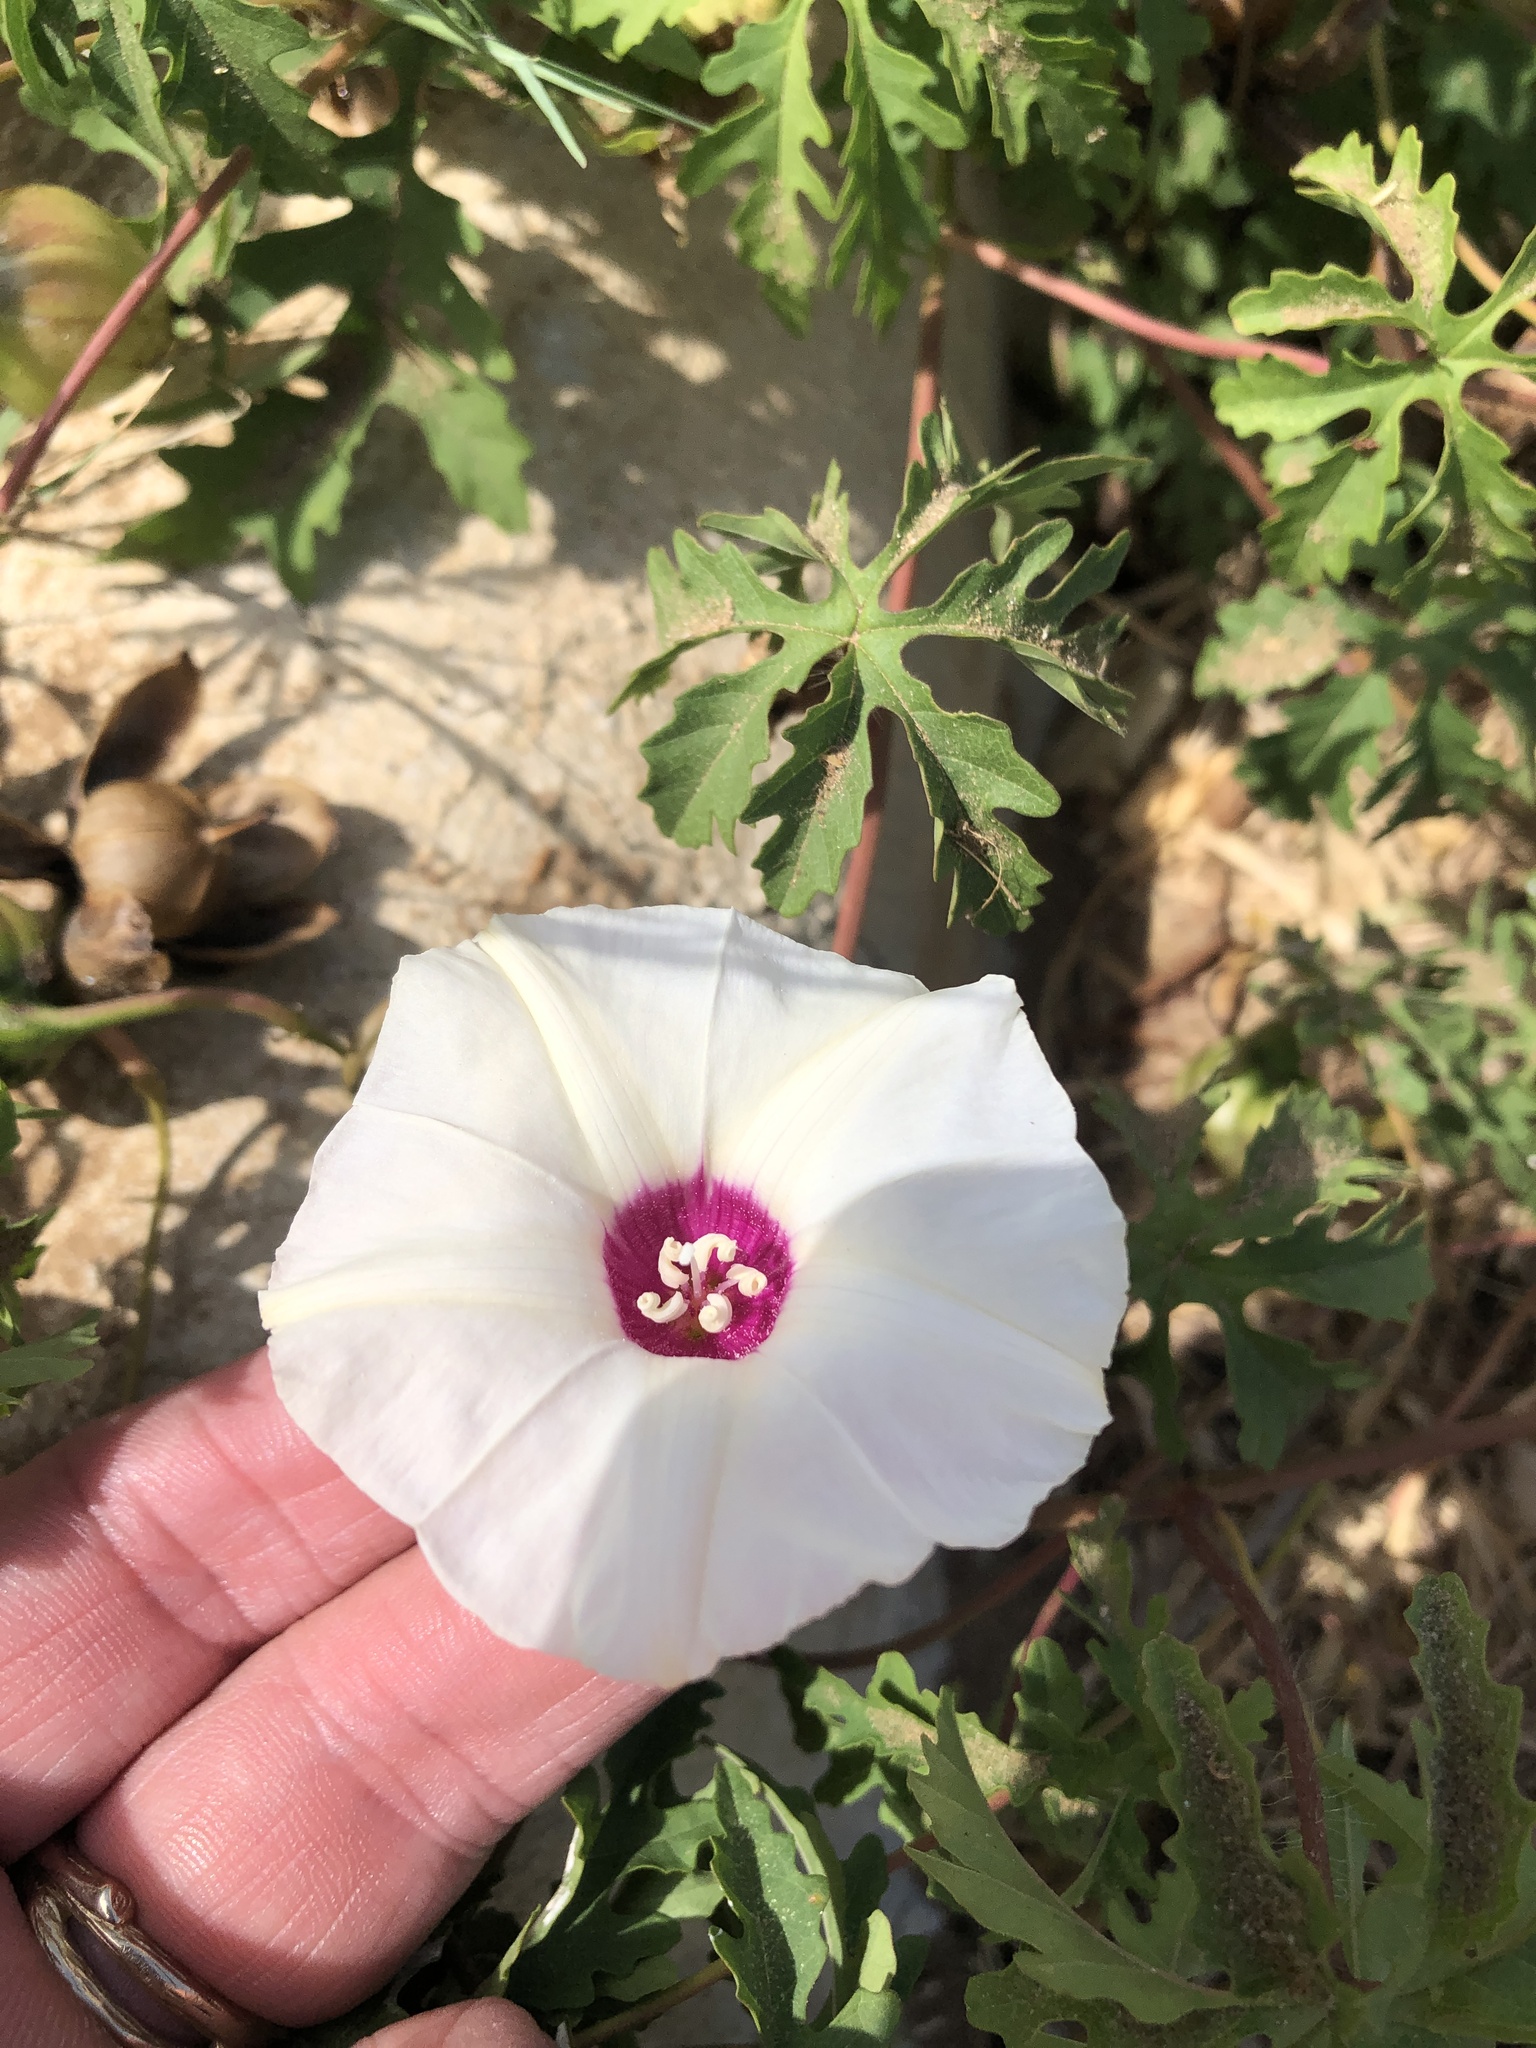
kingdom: Plantae
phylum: Tracheophyta
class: Magnoliopsida
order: Solanales
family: Convolvulaceae
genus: Distimake
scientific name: Distimake dissectus
